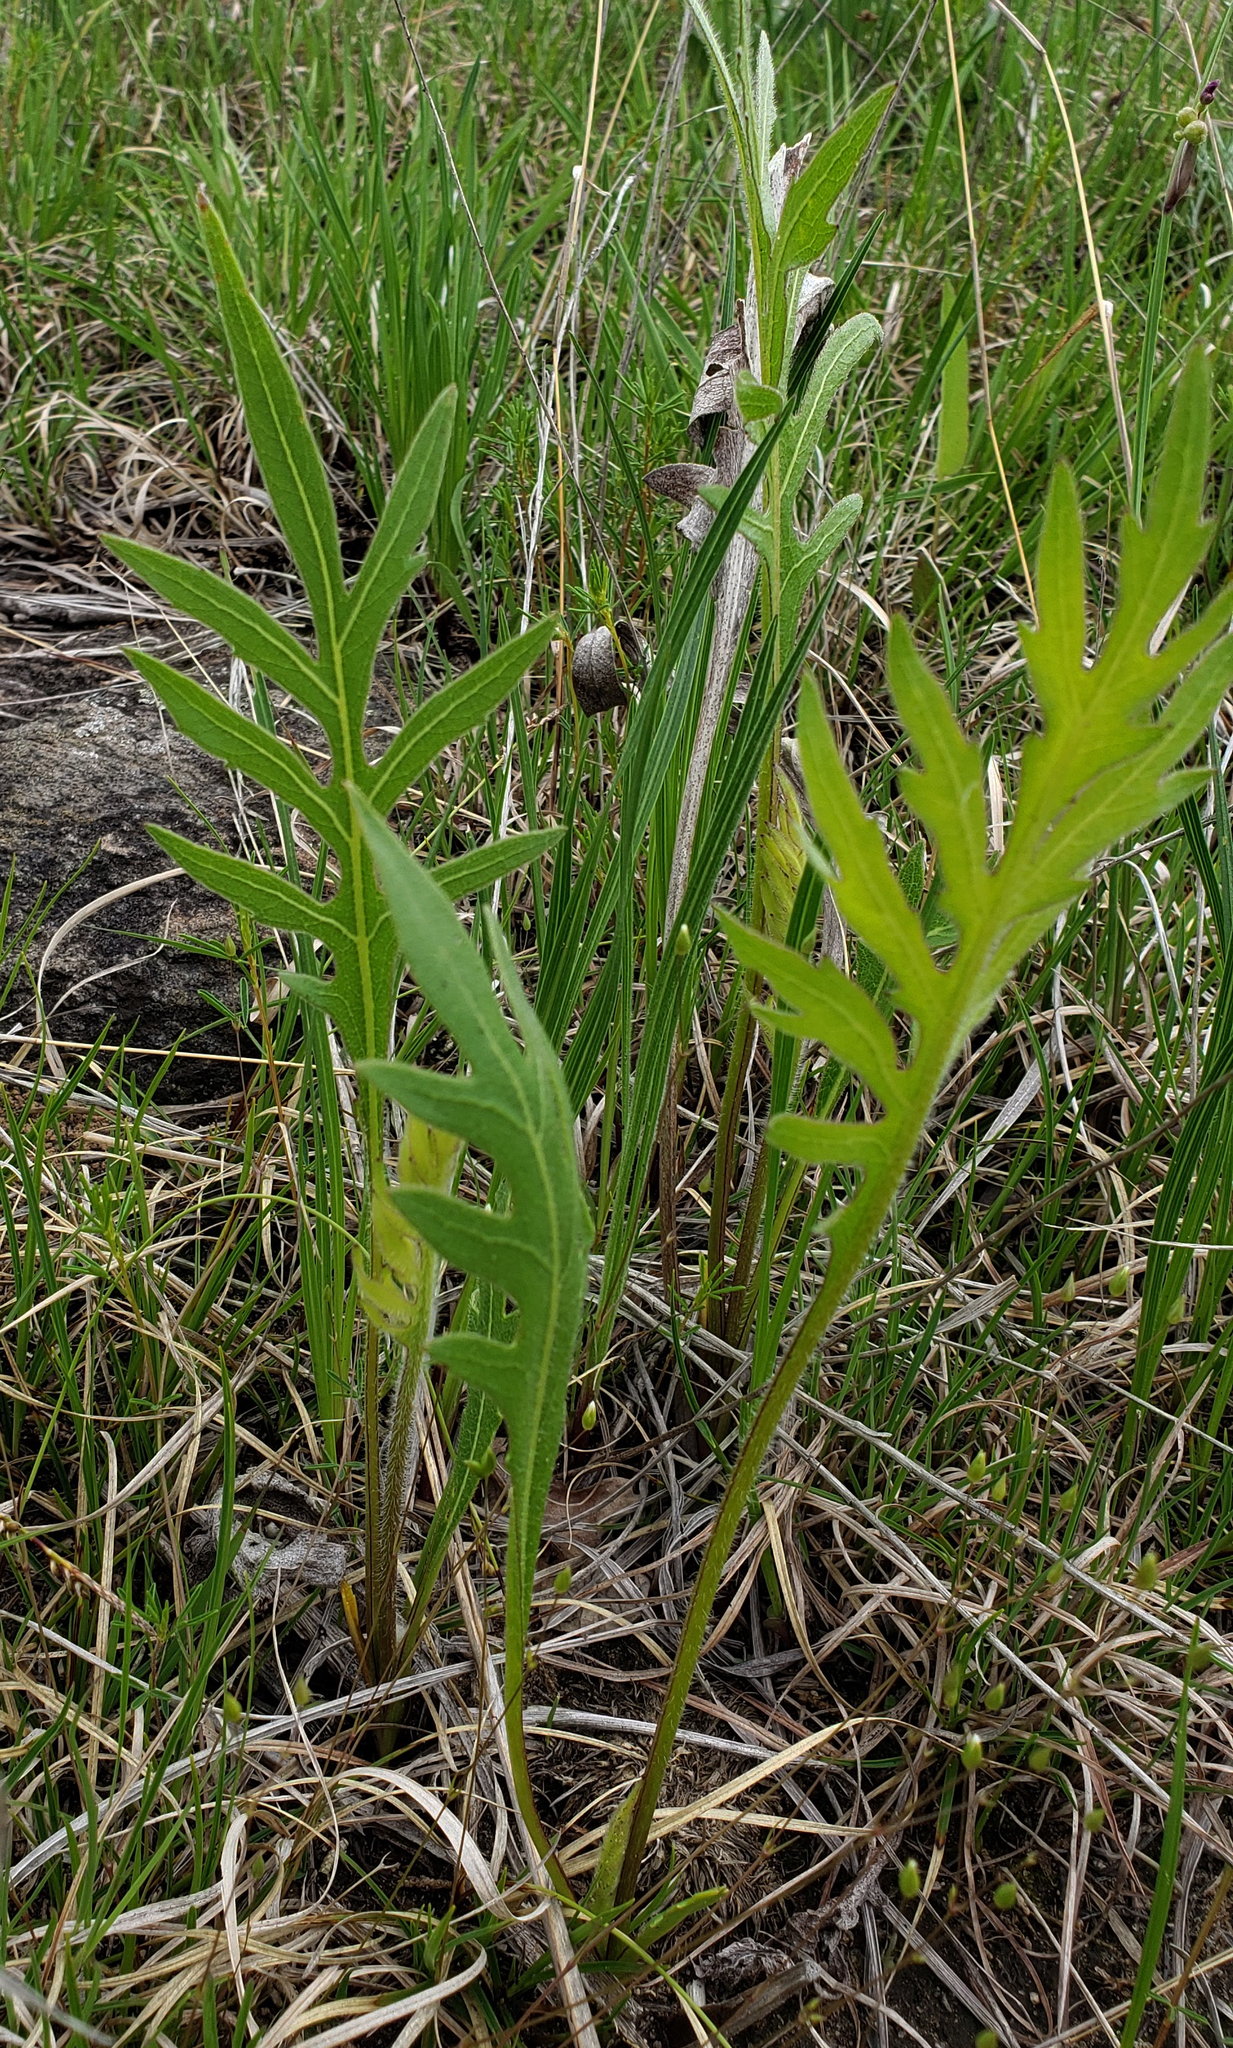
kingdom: Plantae
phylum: Tracheophyta
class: Magnoliopsida
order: Asterales
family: Asteraceae
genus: Silphium
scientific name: Silphium laciniatum
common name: Polarplant
